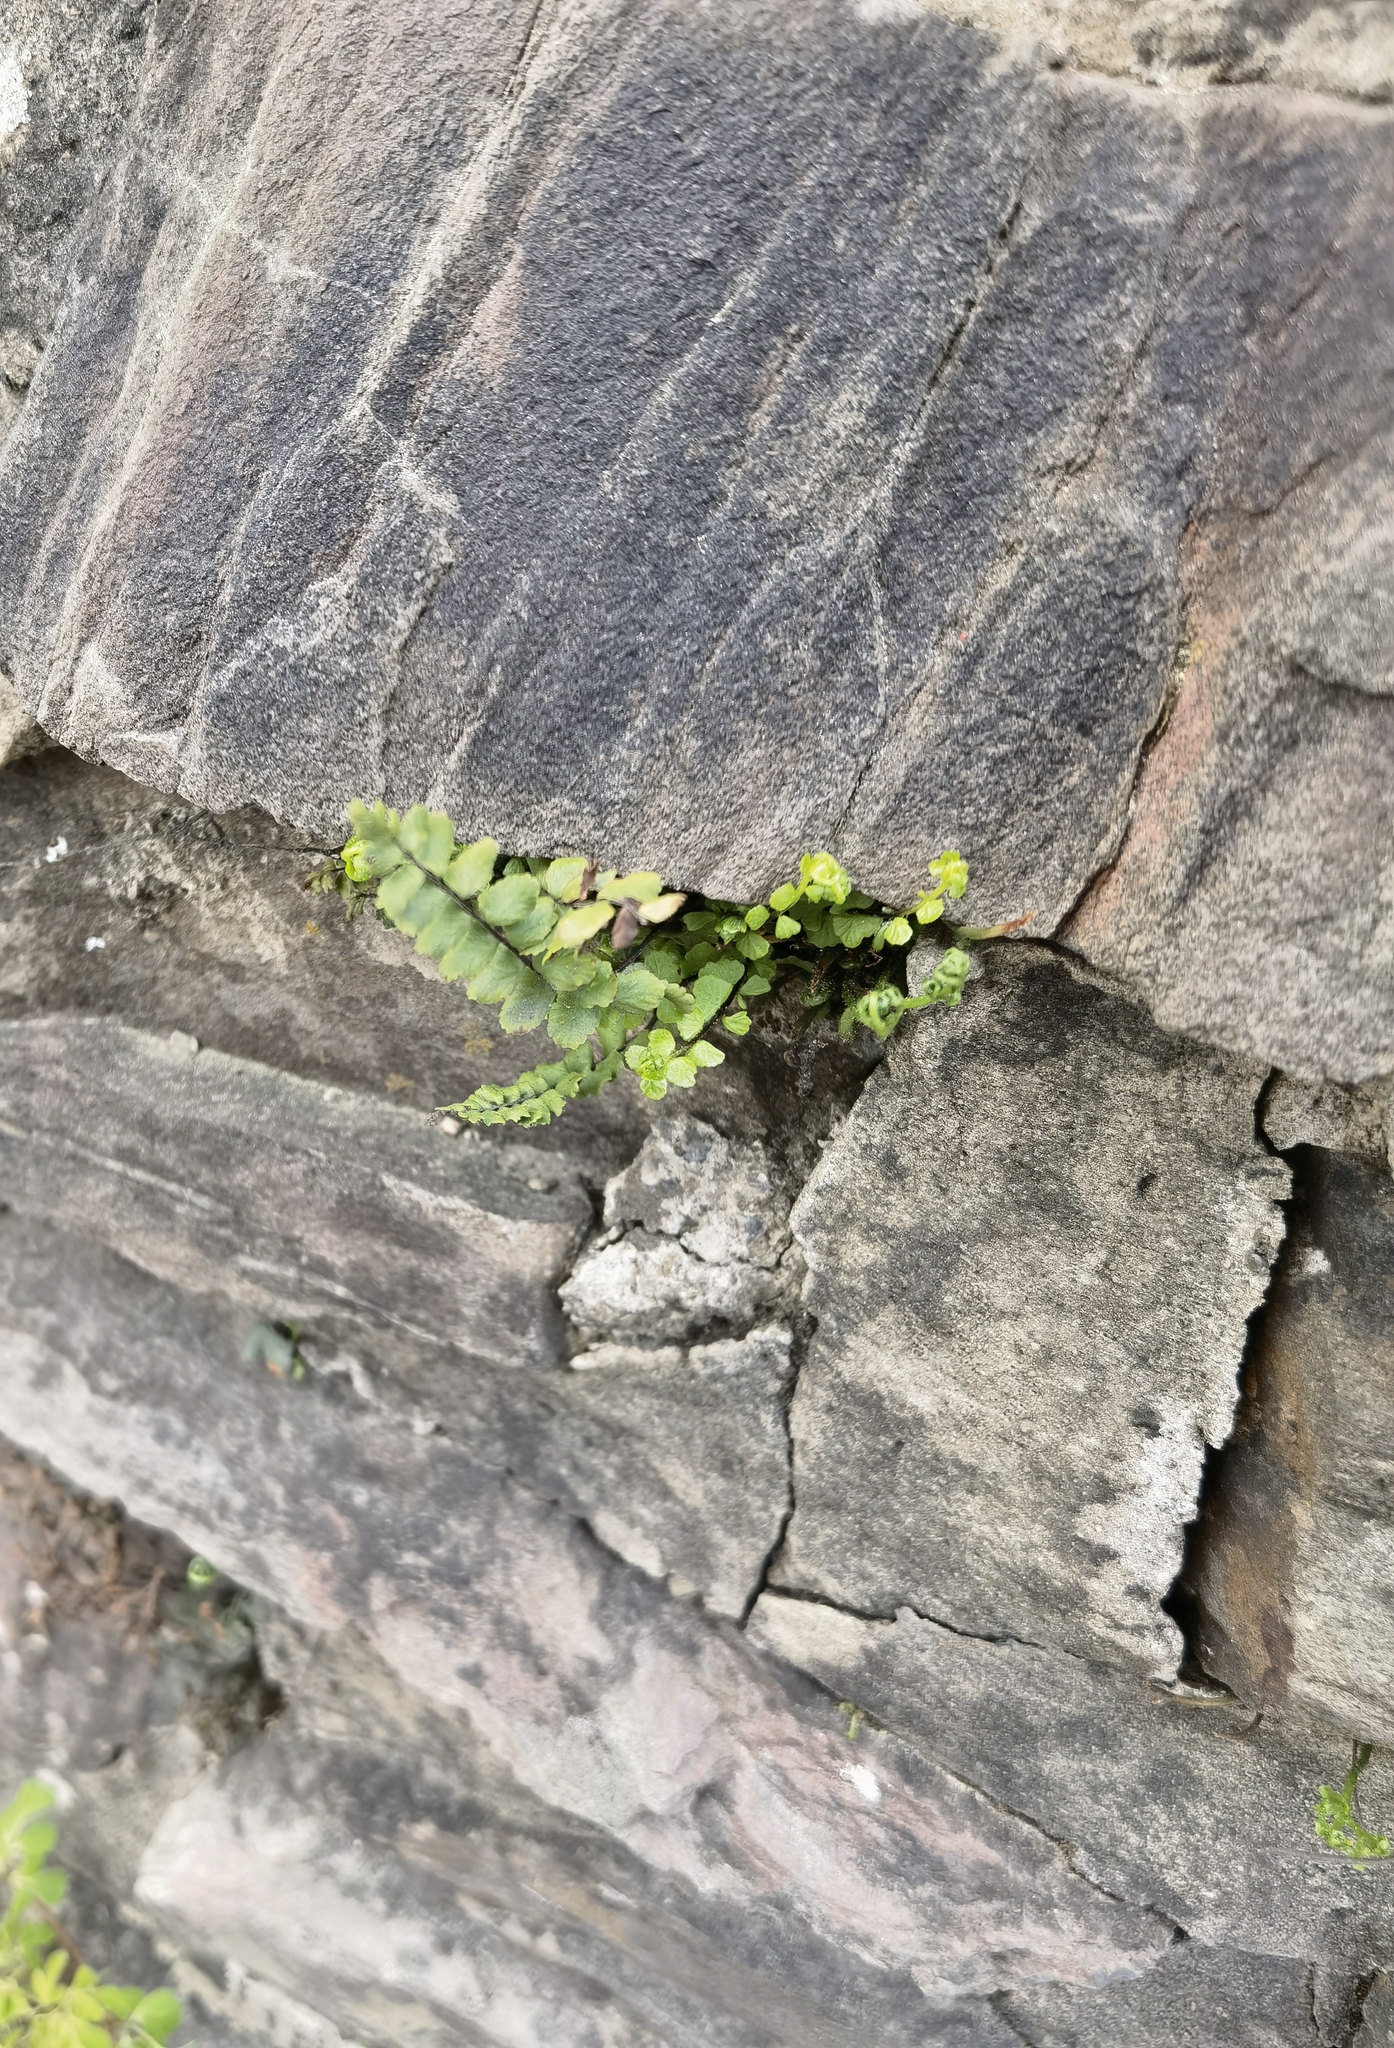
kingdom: Plantae
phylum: Tracheophyta
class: Polypodiopsida
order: Polypodiales
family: Aspleniaceae
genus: Asplenium
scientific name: Asplenium trichomanes
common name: Maidenhair spleenwort
